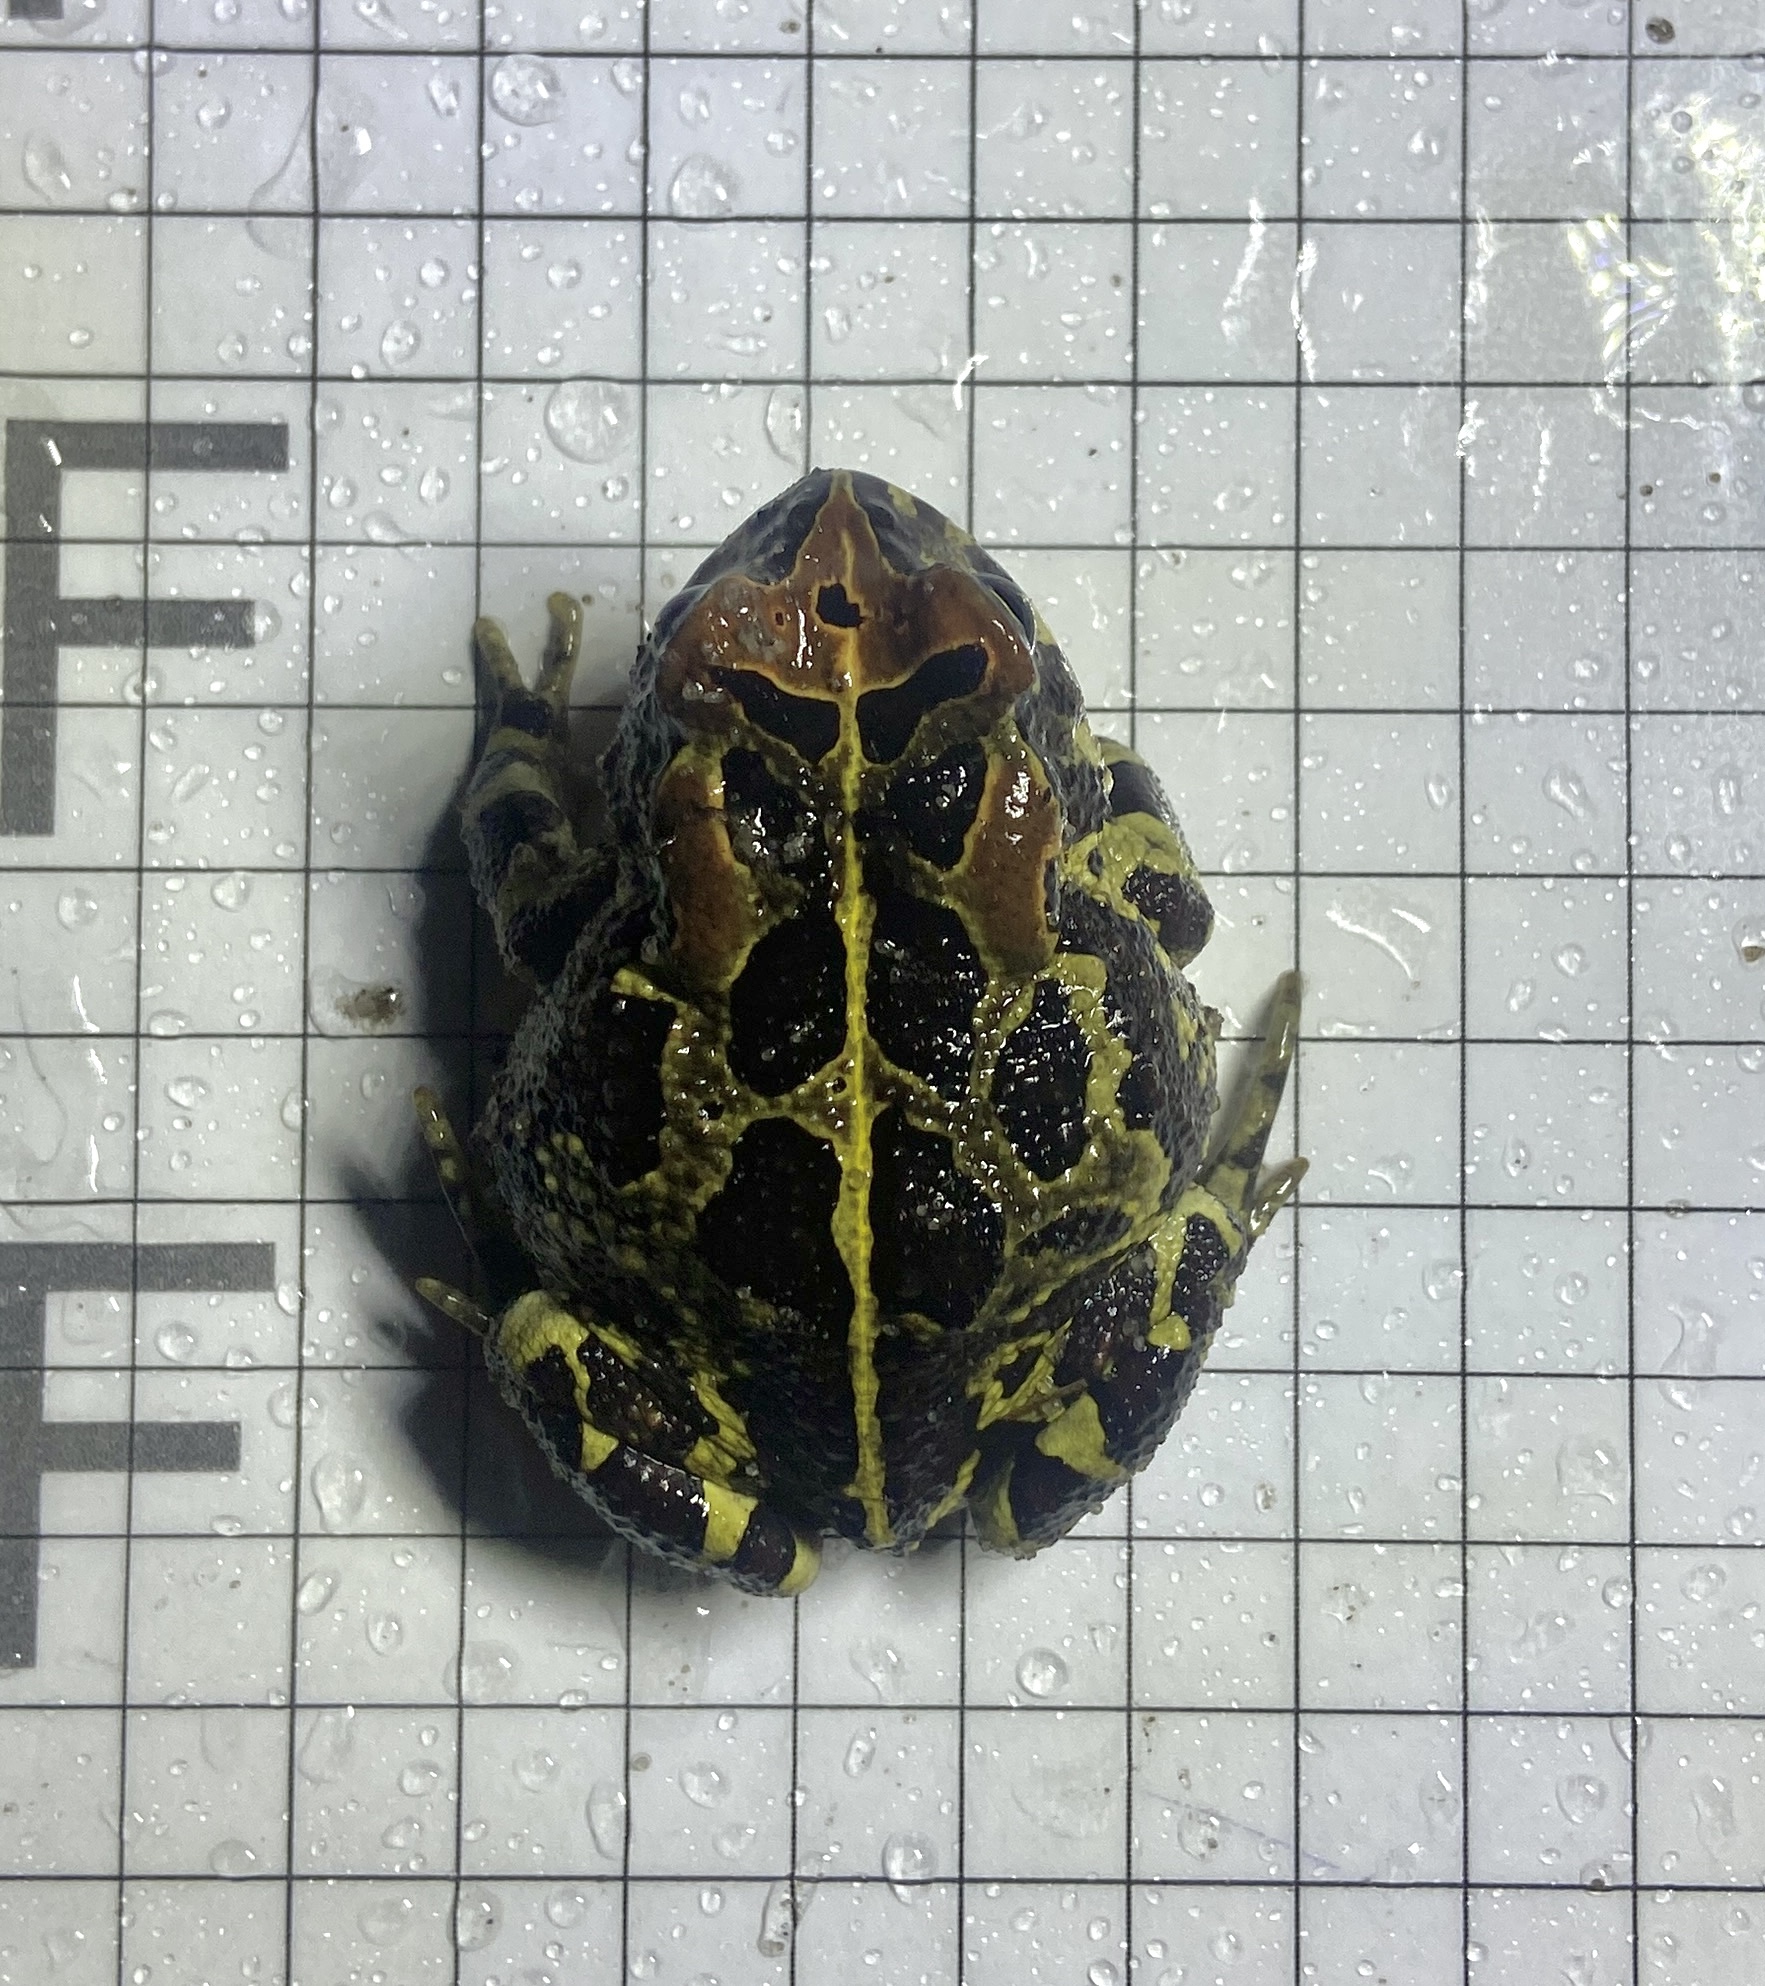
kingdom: Animalia
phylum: Chordata
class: Amphibia
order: Anura
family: Bufonidae
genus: Sclerophrys
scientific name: Sclerophrys pantherina
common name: Panther toad
